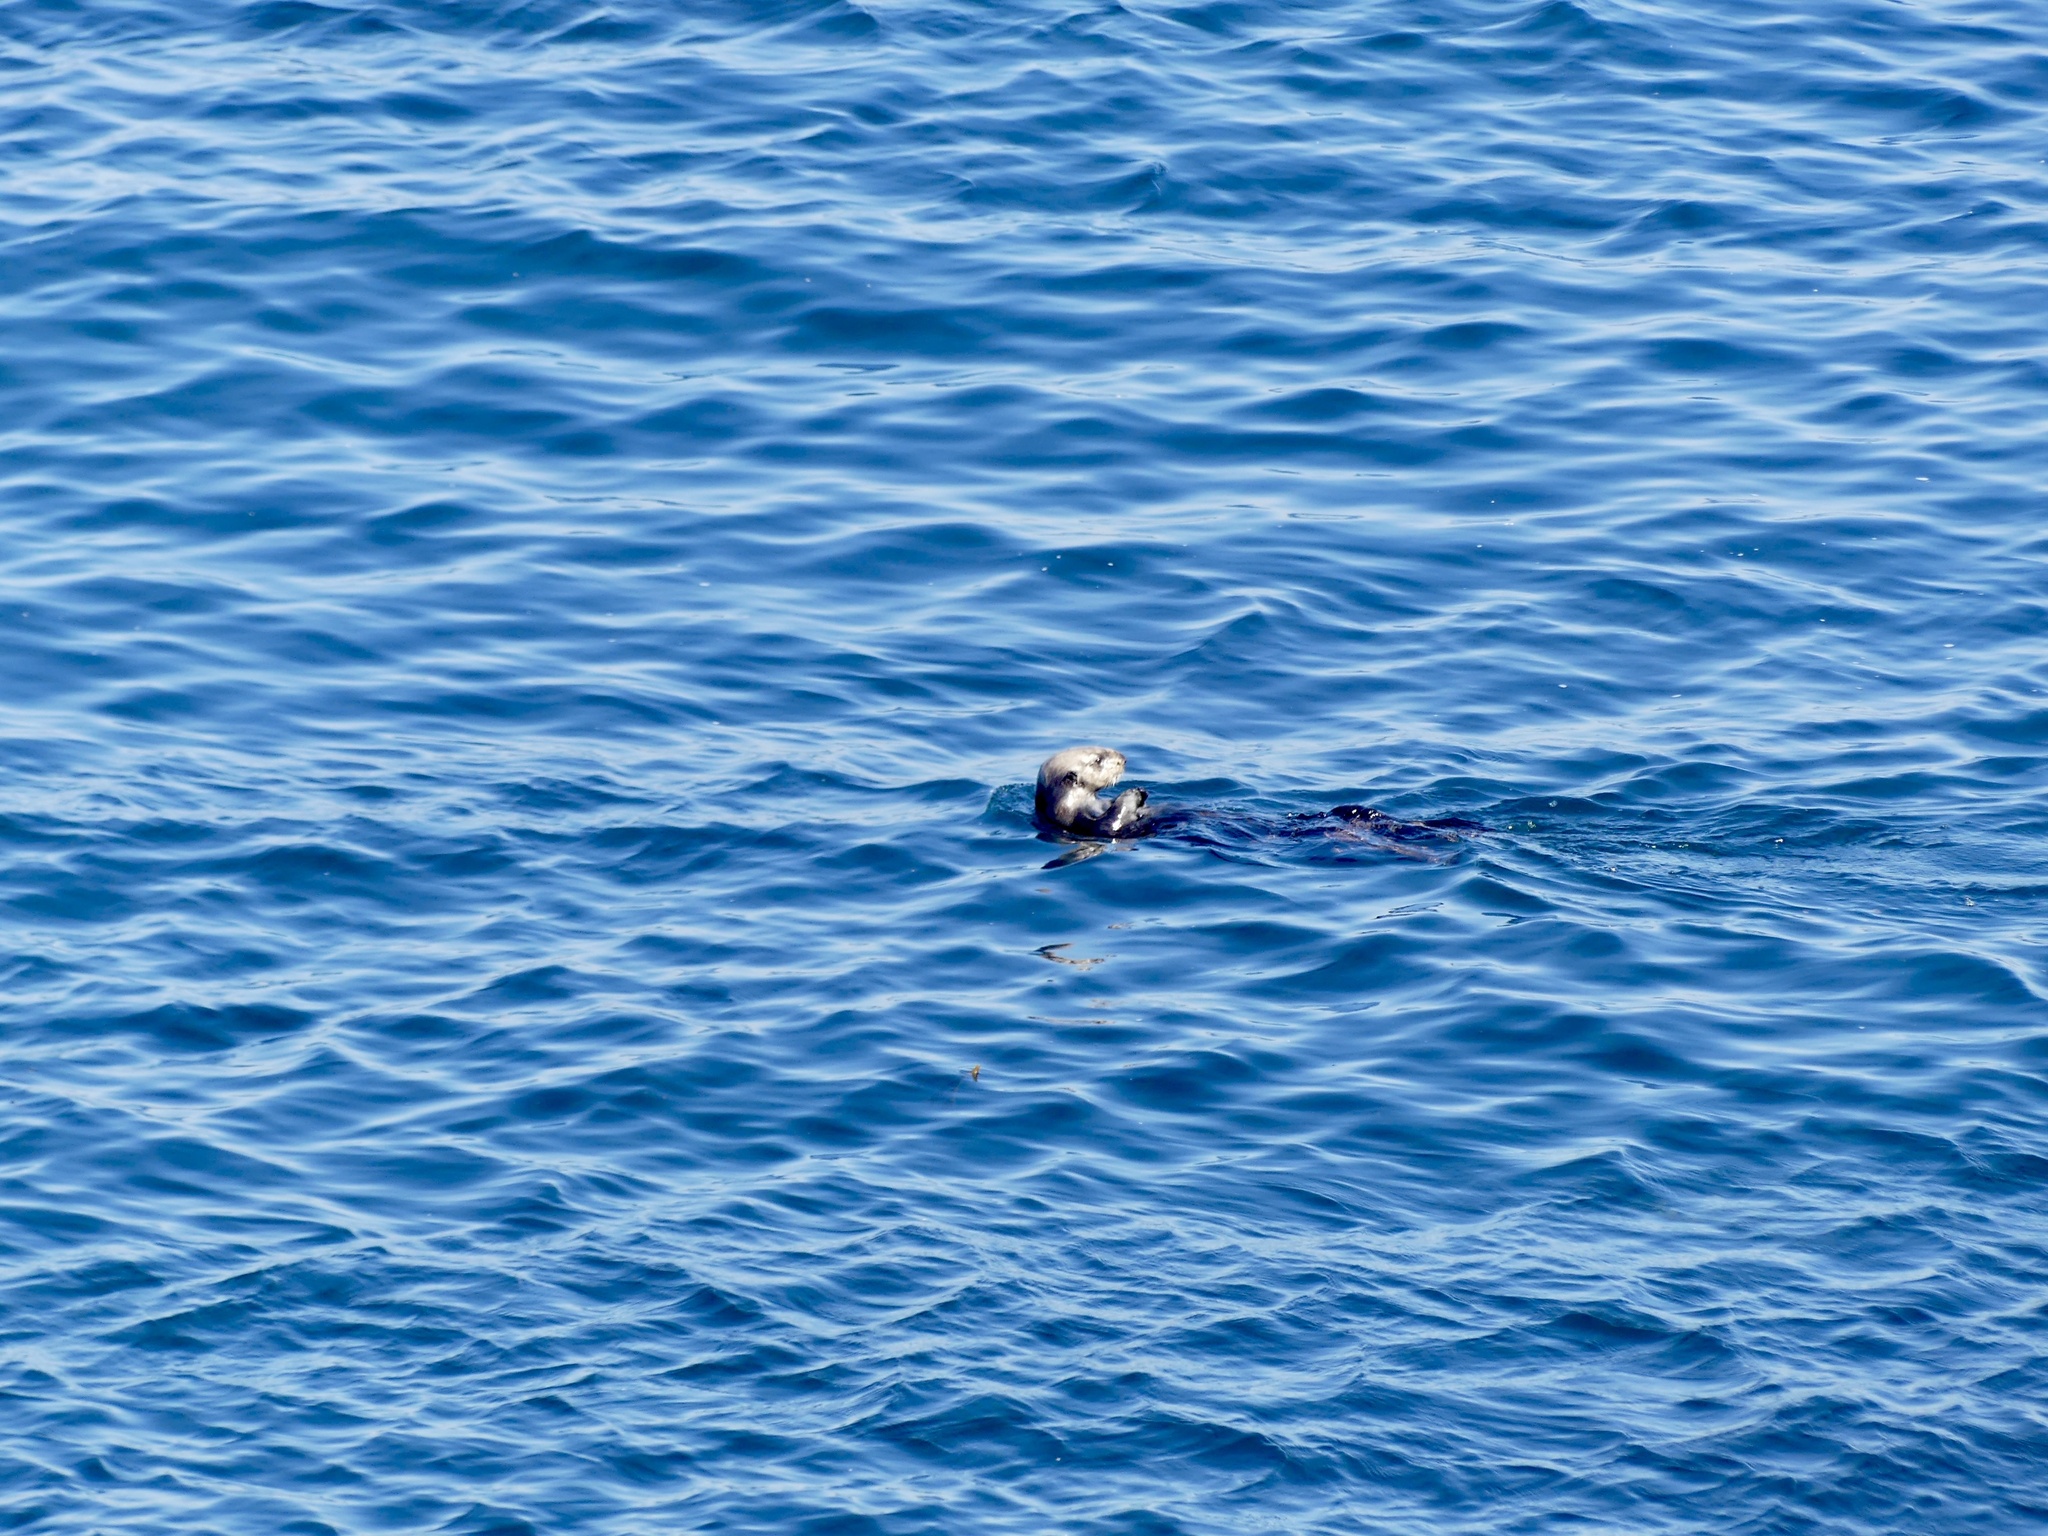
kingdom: Animalia
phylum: Chordata
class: Mammalia
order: Carnivora
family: Mustelidae
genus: Enhydra
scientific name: Enhydra lutris
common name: Sea otter
